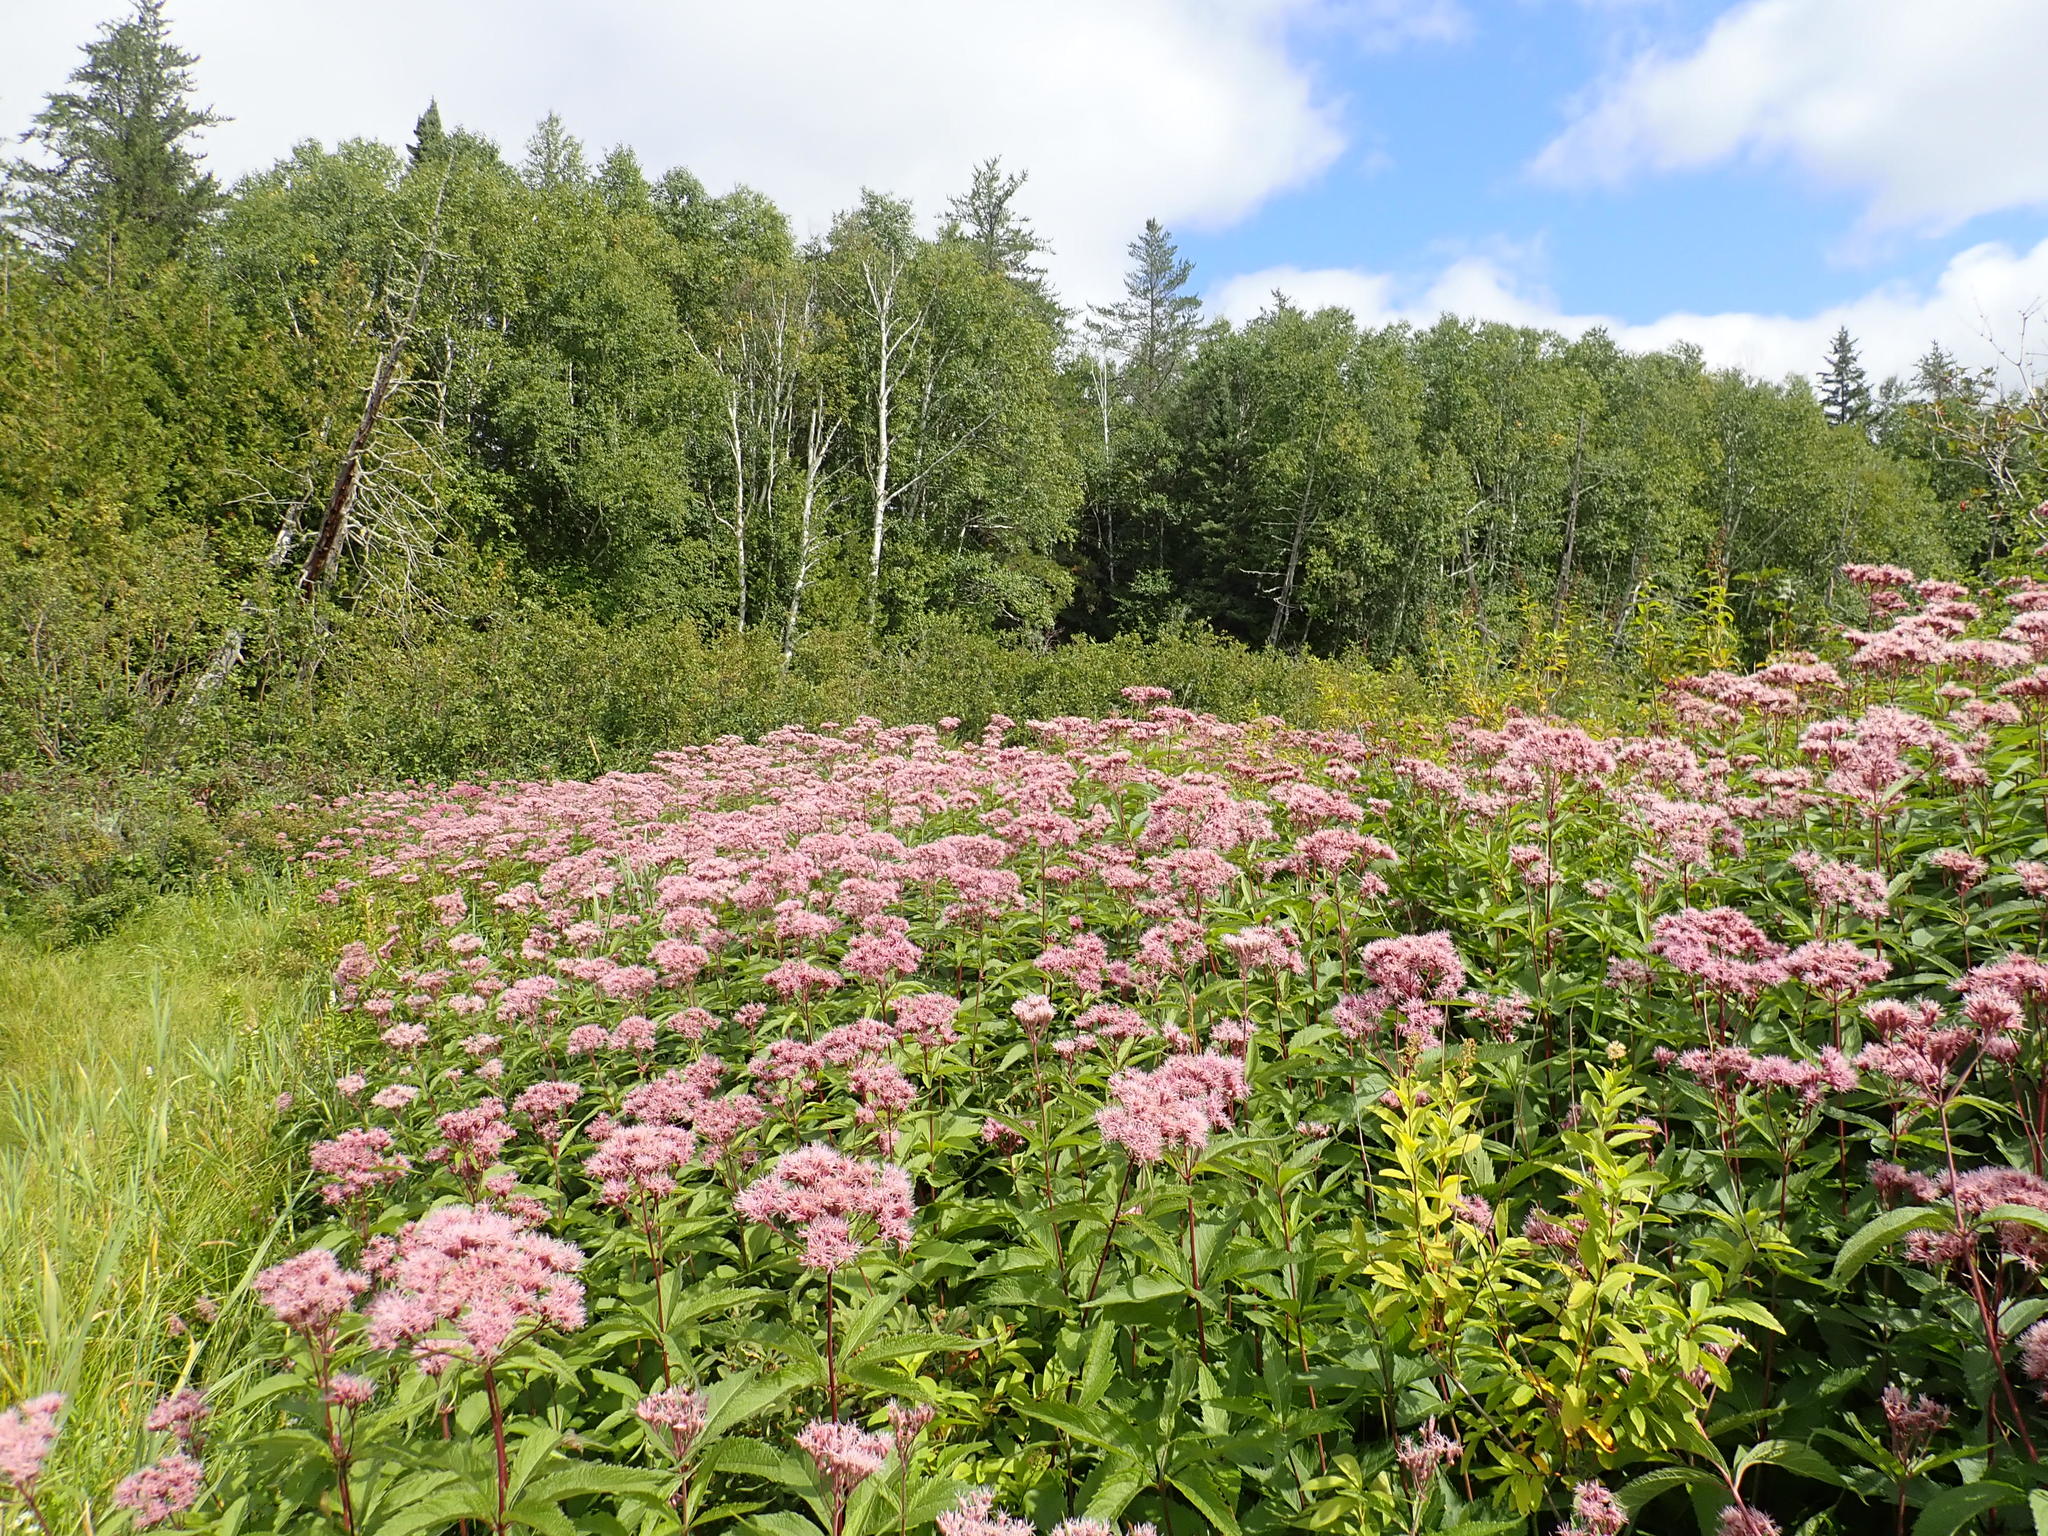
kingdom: Plantae
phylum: Tracheophyta
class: Magnoliopsida
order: Asterales
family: Asteraceae
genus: Eutrochium
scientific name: Eutrochium maculatum
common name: Spotted joe pye weed
